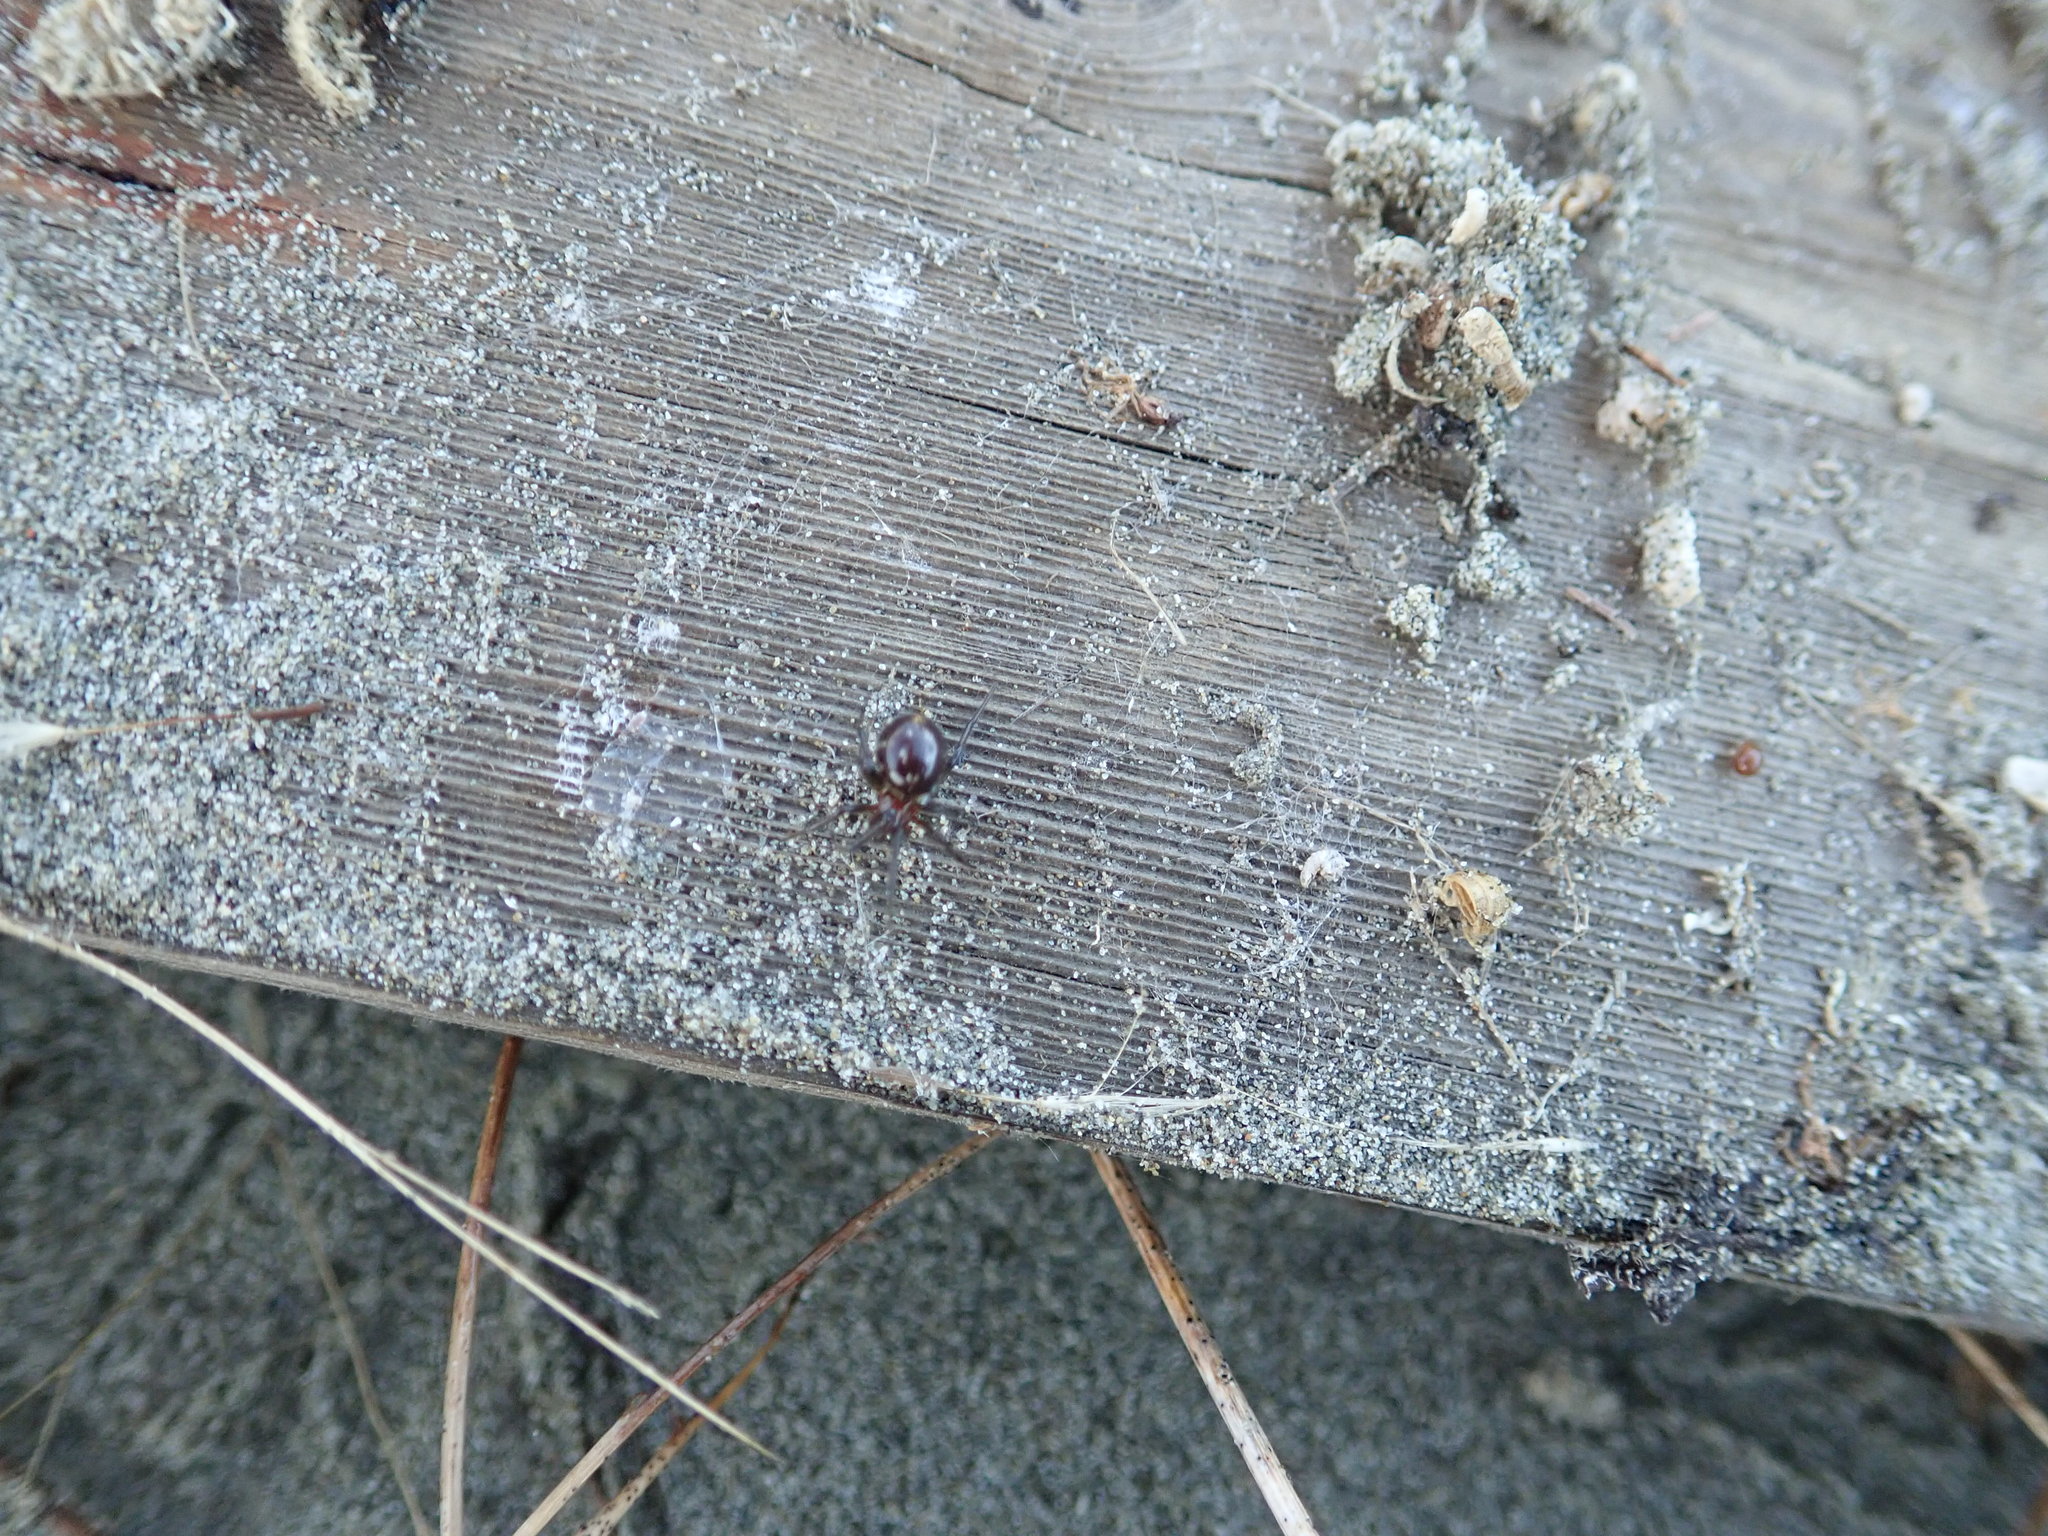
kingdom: Animalia
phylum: Arthropoda
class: Arachnida
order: Araneae
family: Theridiidae
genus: Latrodectus
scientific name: Latrodectus katipo
